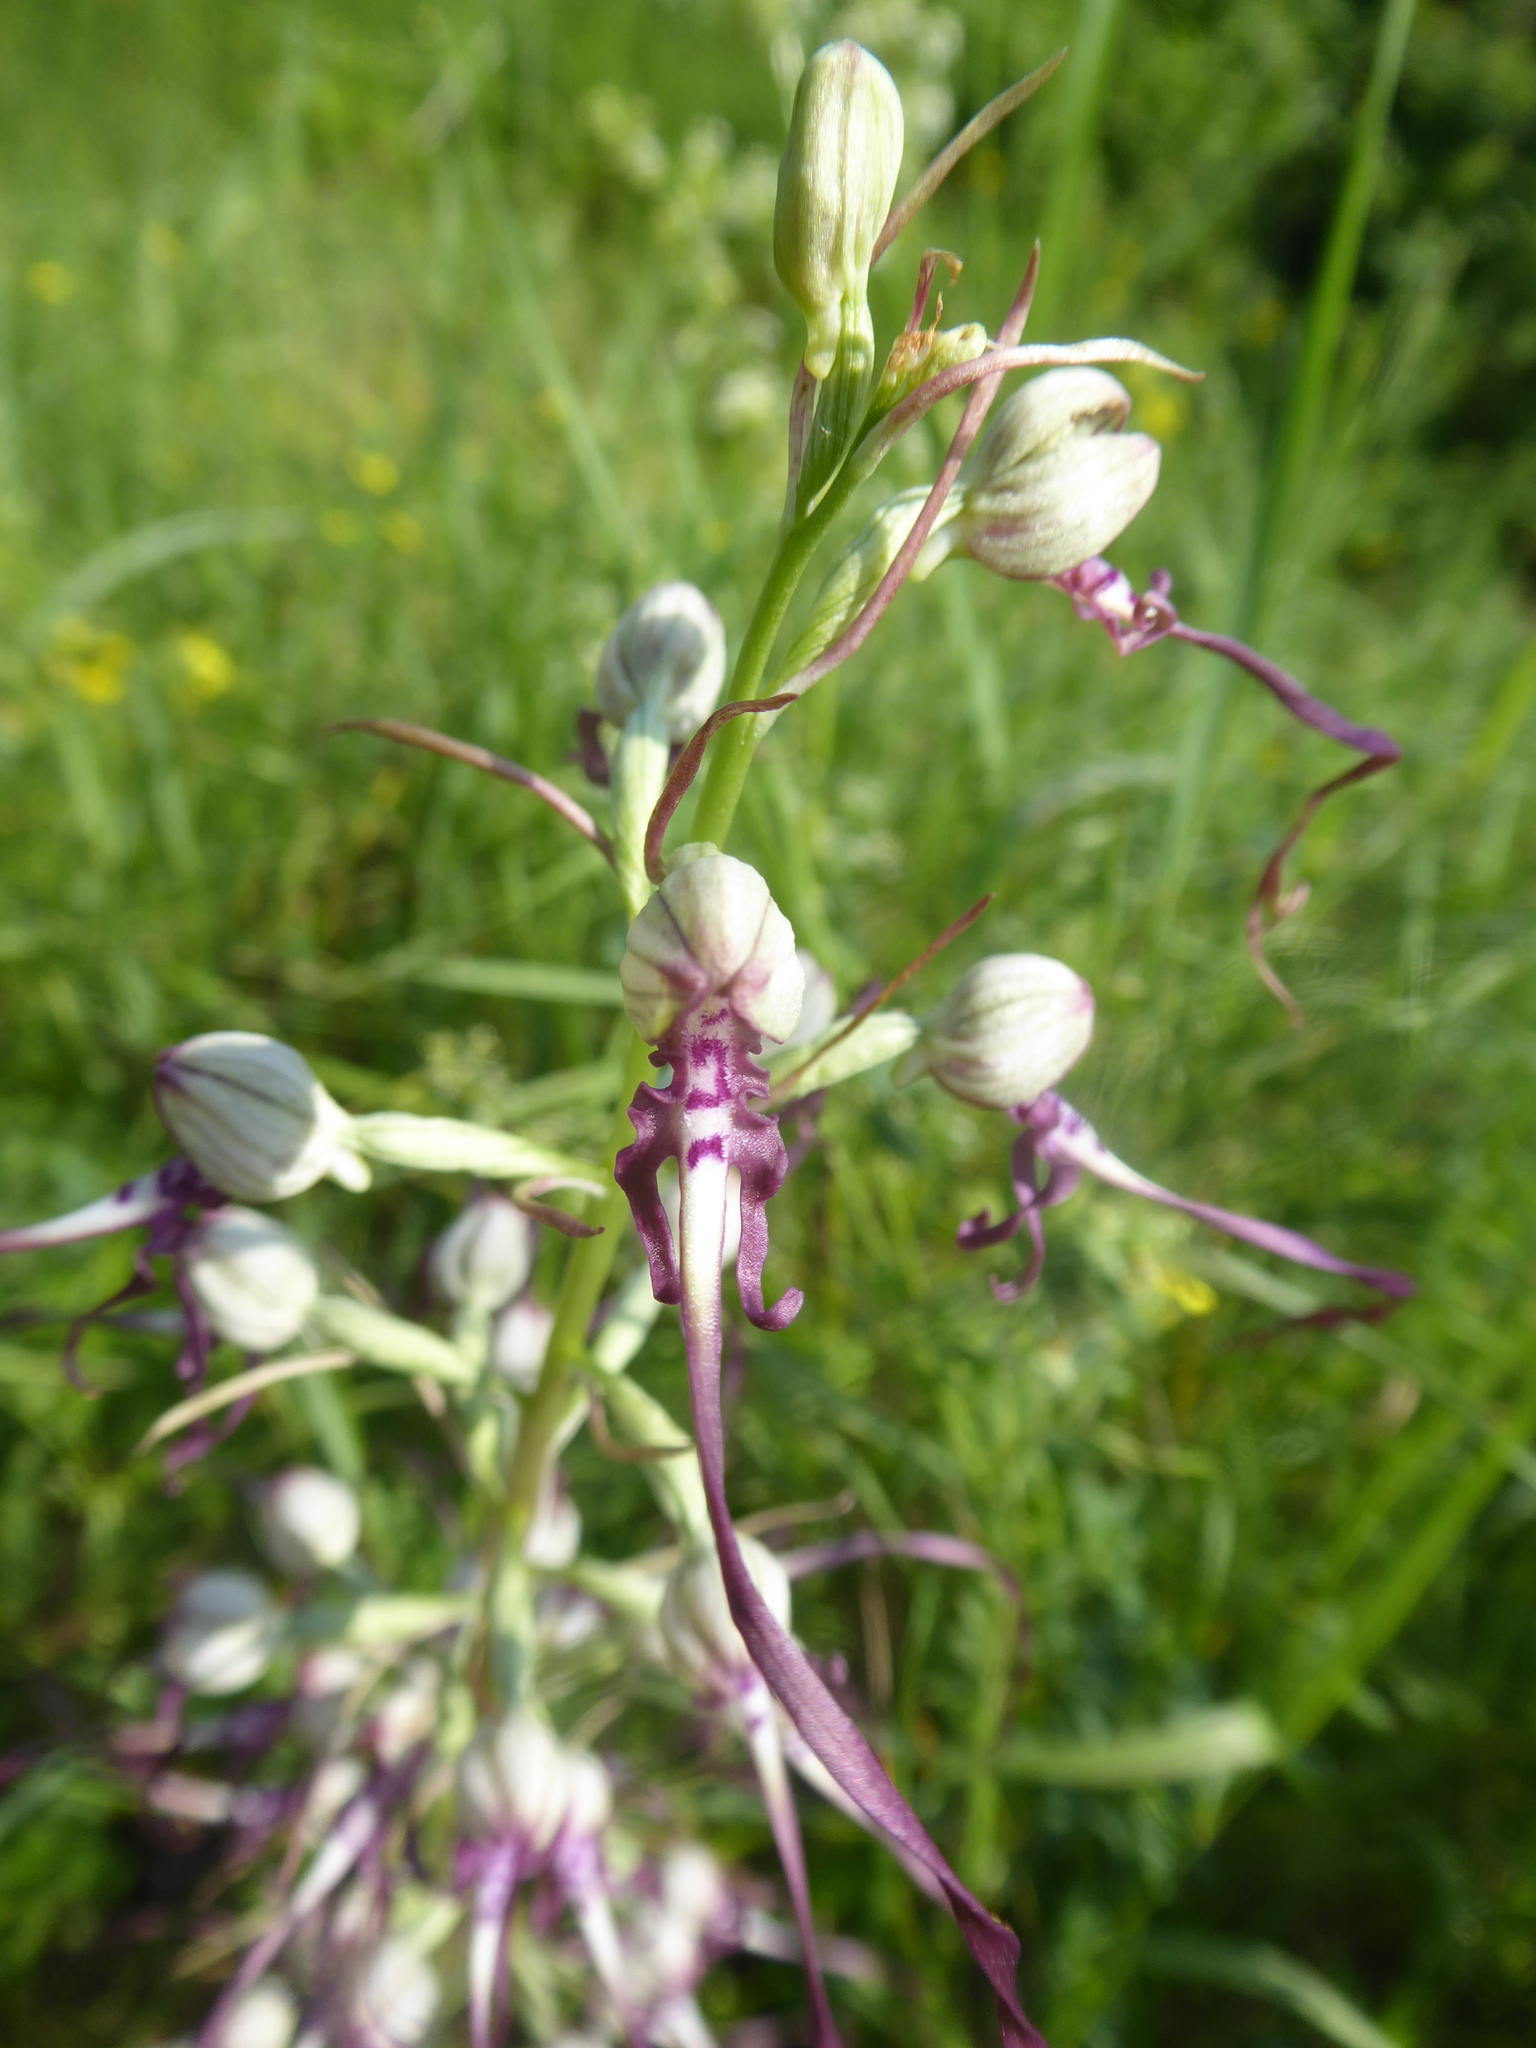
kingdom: Plantae
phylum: Tracheophyta
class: Liliopsida
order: Asparagales
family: Orchidaceae
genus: Himantoglossum
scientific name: Himantoglossum adriaticum
